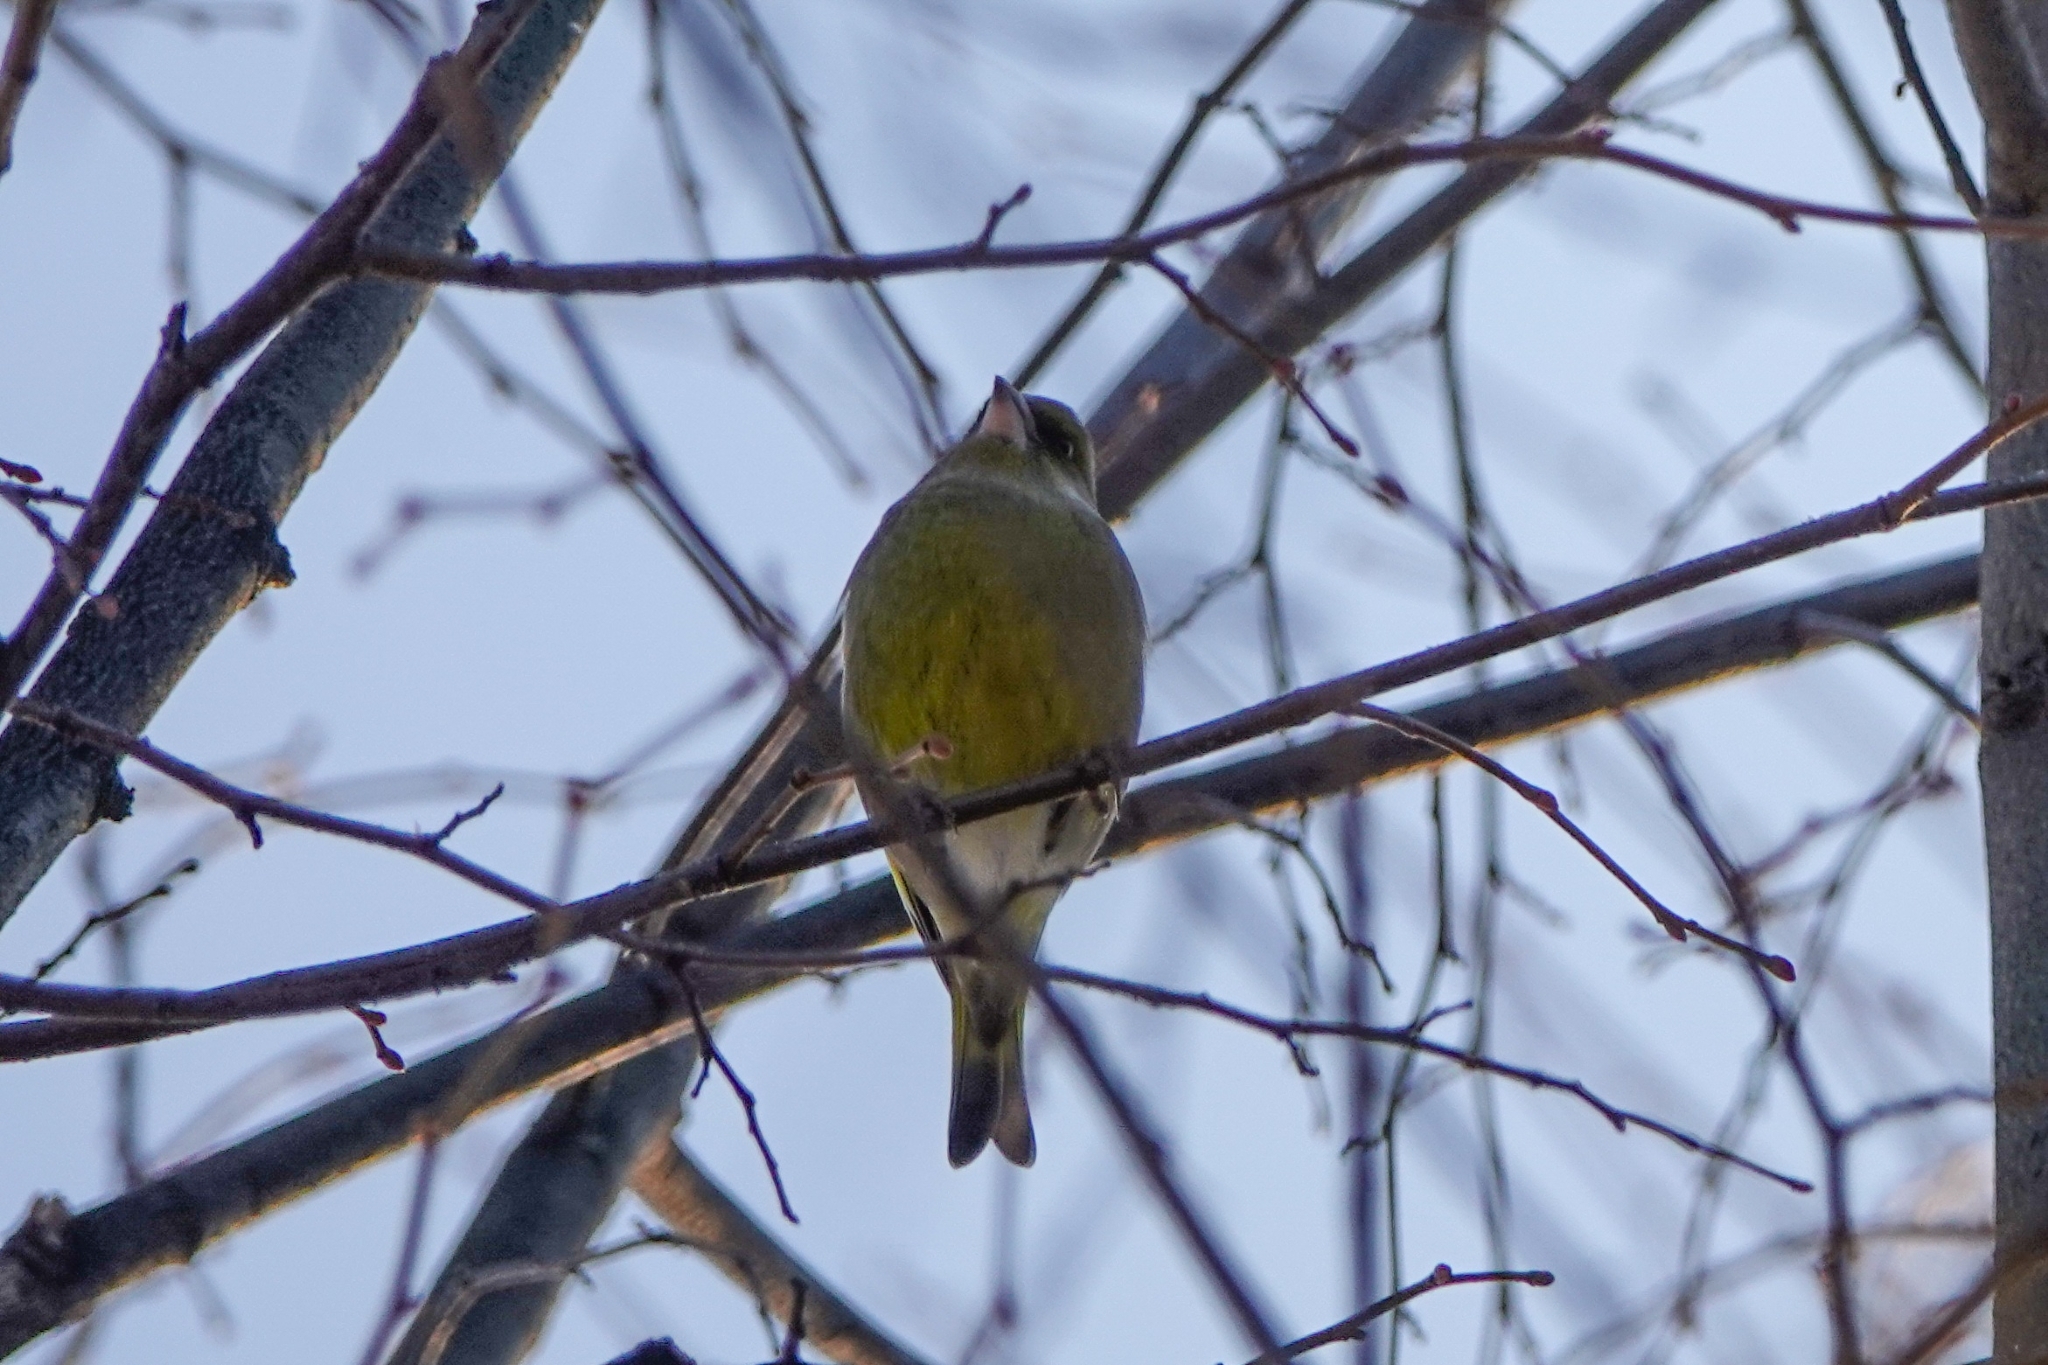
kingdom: Plantae
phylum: Tracheophyta
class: Liliopsida
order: Poales
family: Poaceae
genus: Chloris
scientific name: Chloris chloris
